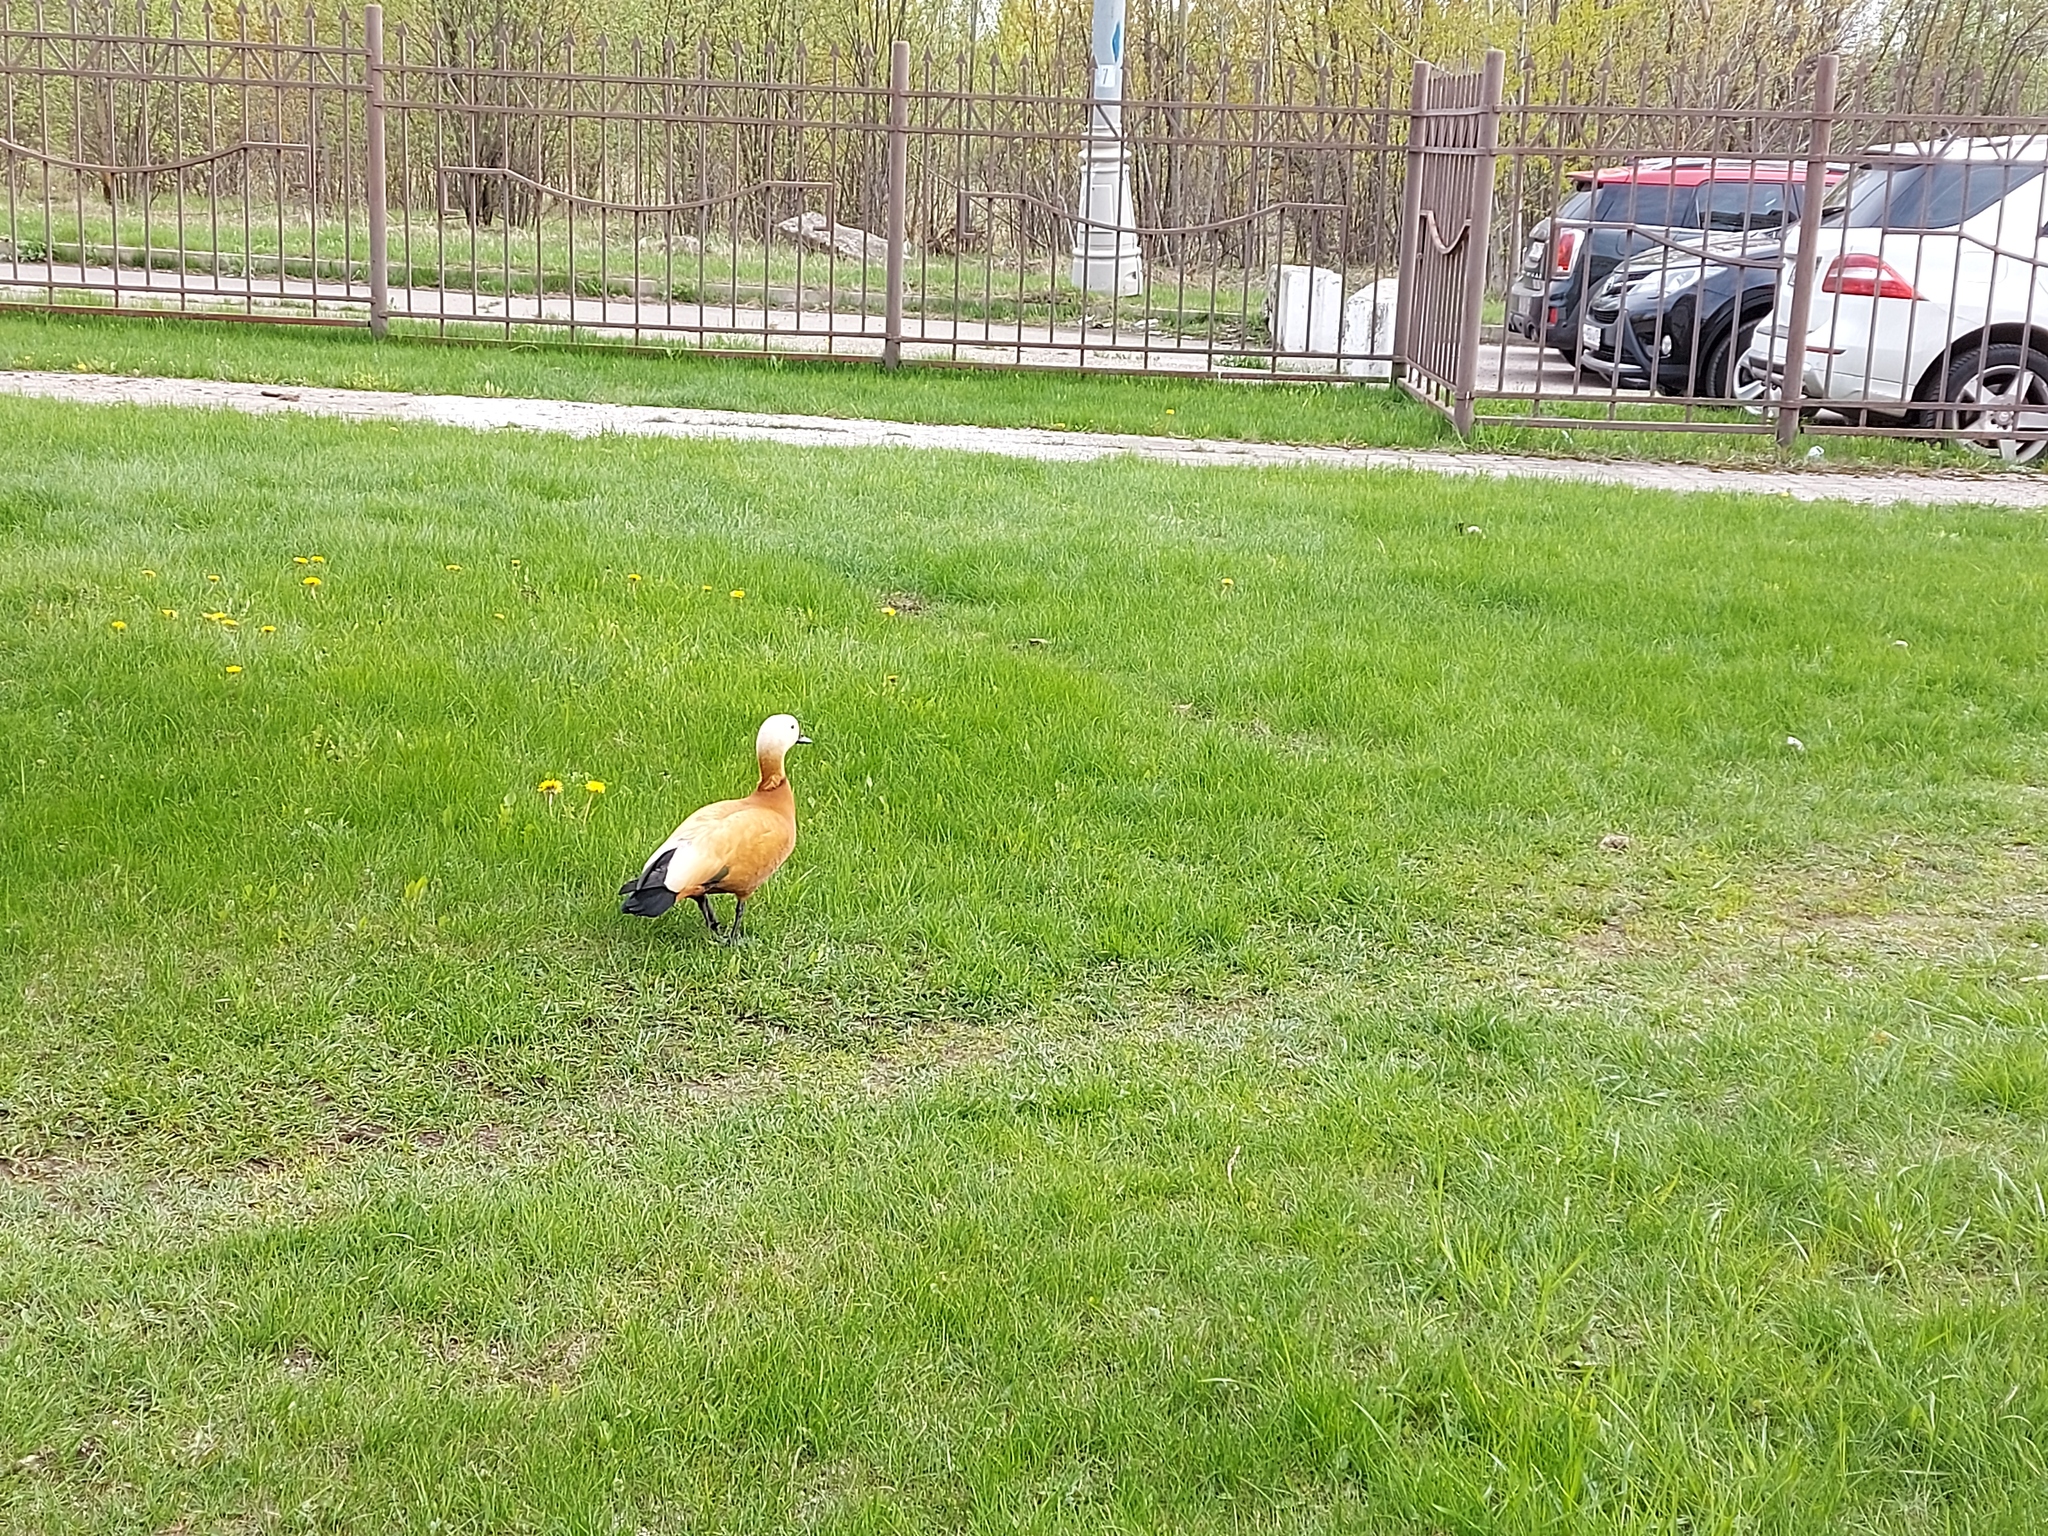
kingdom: Animalia
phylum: Chordata
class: Aves
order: Anseriformes
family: Anatidae
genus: Tadorna
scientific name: Tadorna ferruginea
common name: Ruddy shelduck
